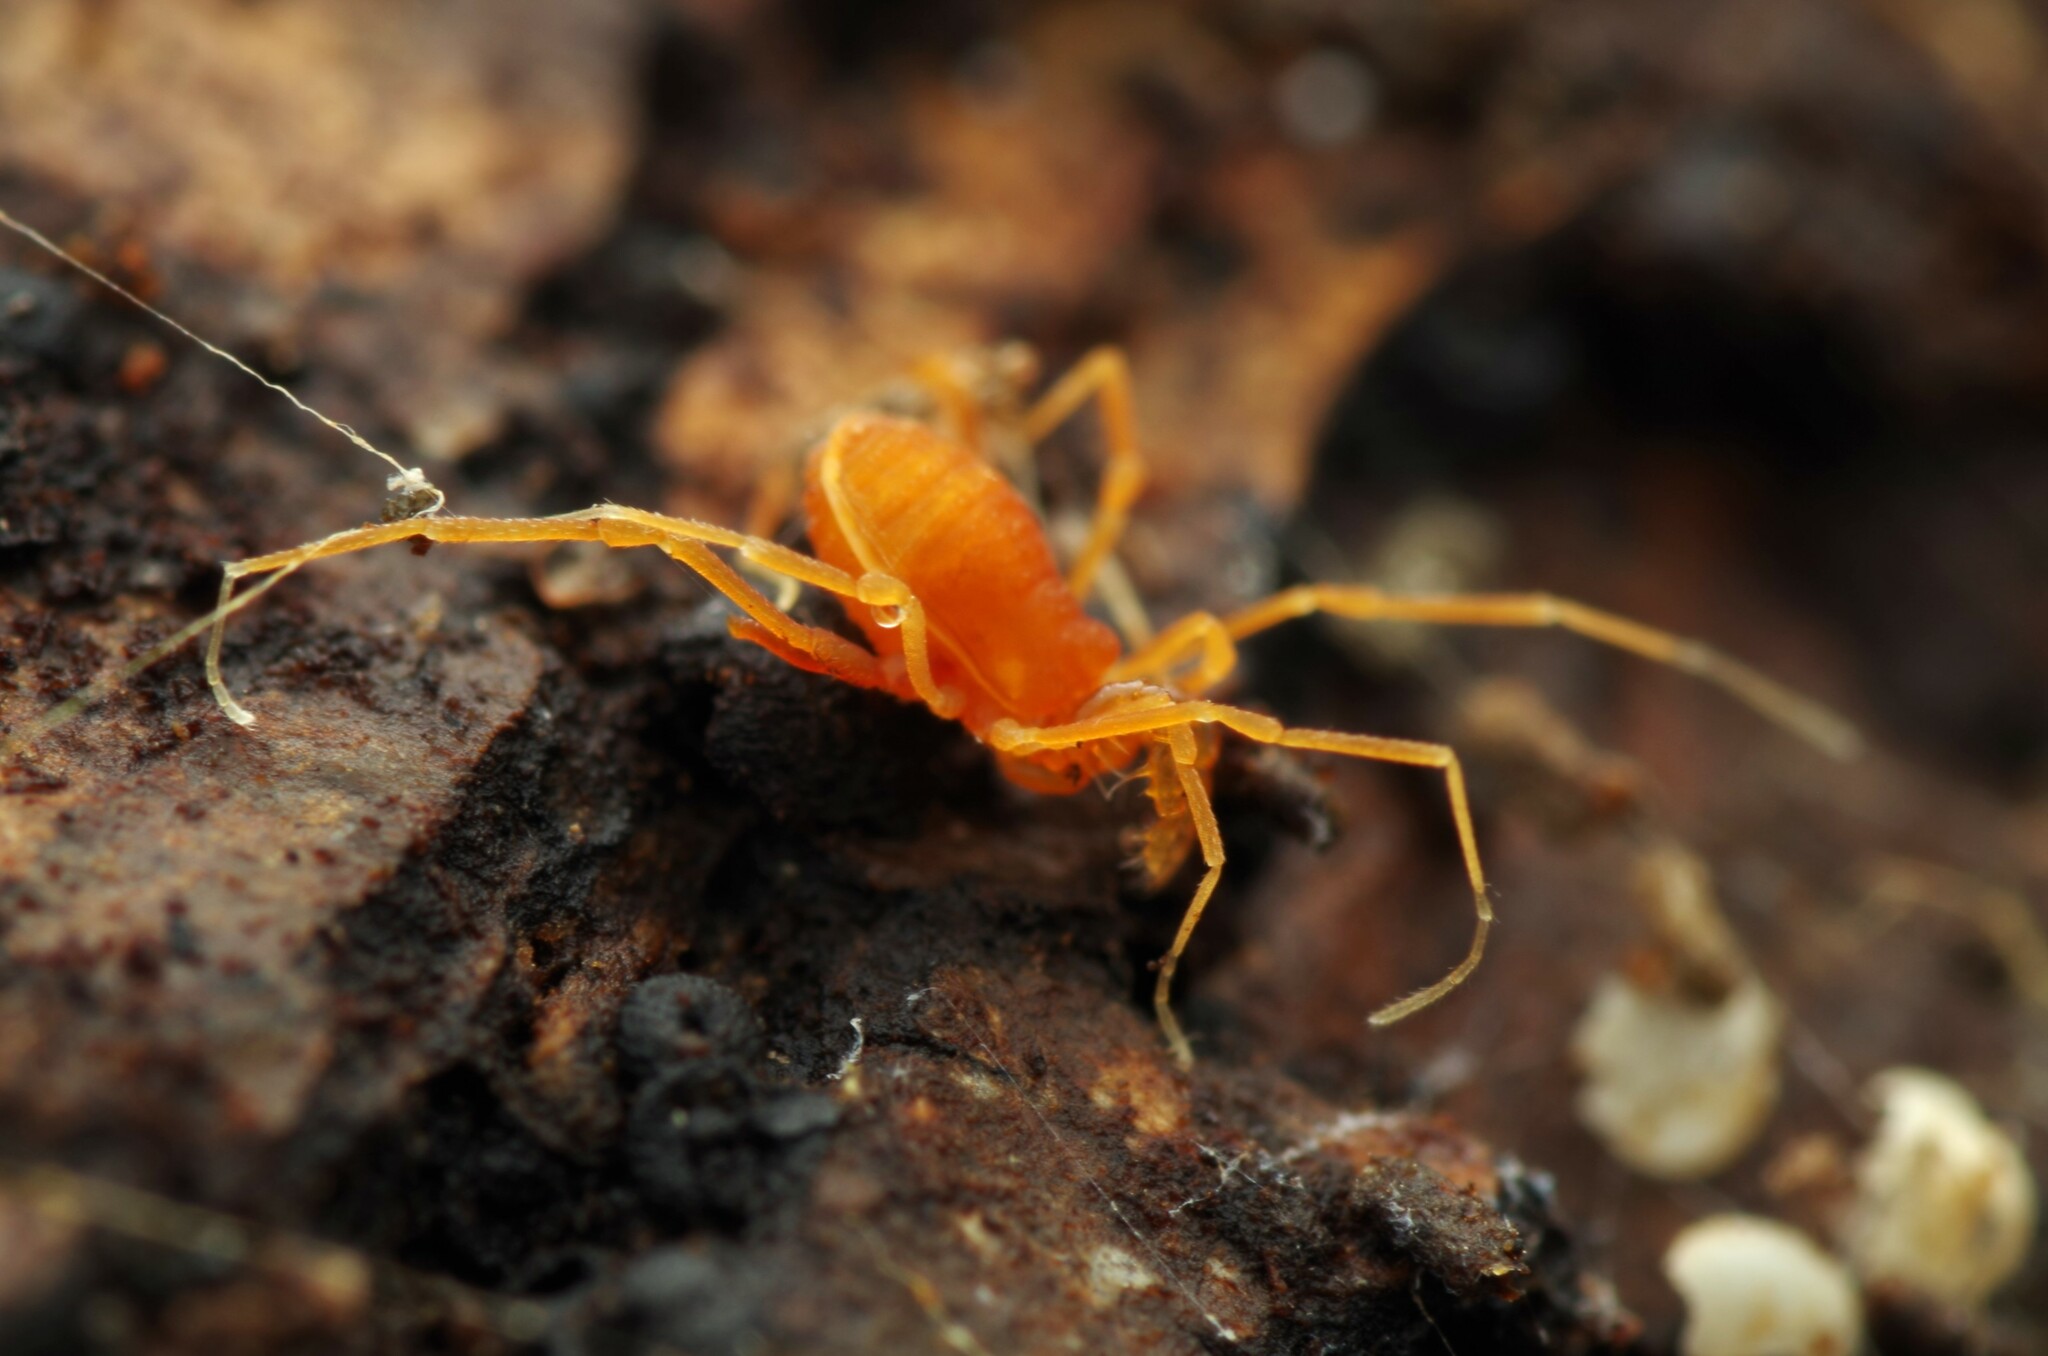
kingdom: Animalia
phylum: Arthropoda
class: Arachnida
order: Opiliones
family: Phalangodidae
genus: Scotolemon
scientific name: Scotolemon doriae
